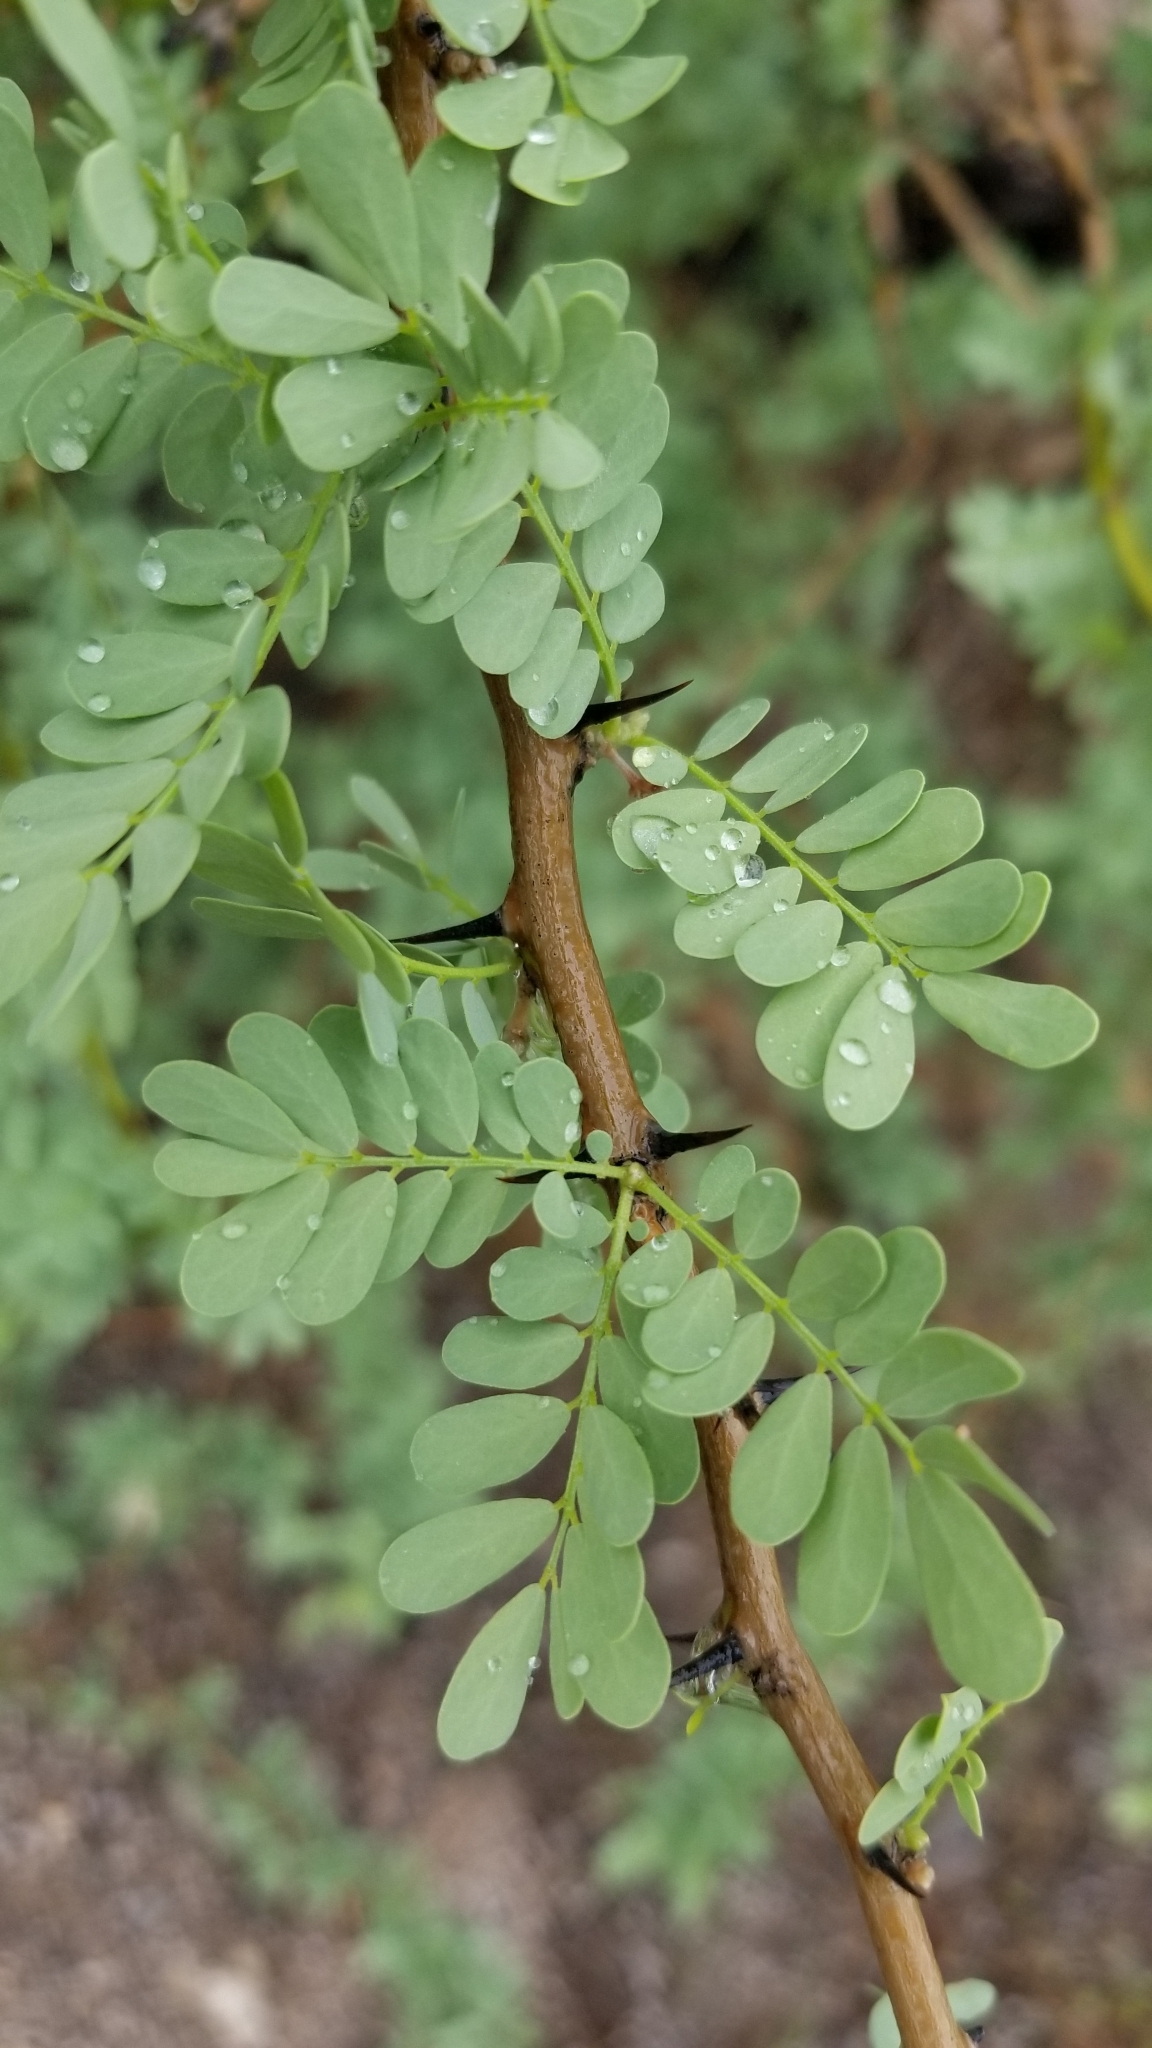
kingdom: Plantae
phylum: Tracheophyta
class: Magnoliopsida
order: Fabales
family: Fabaceae
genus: Olneya
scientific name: Olneya tesota
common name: Desert ironwood
